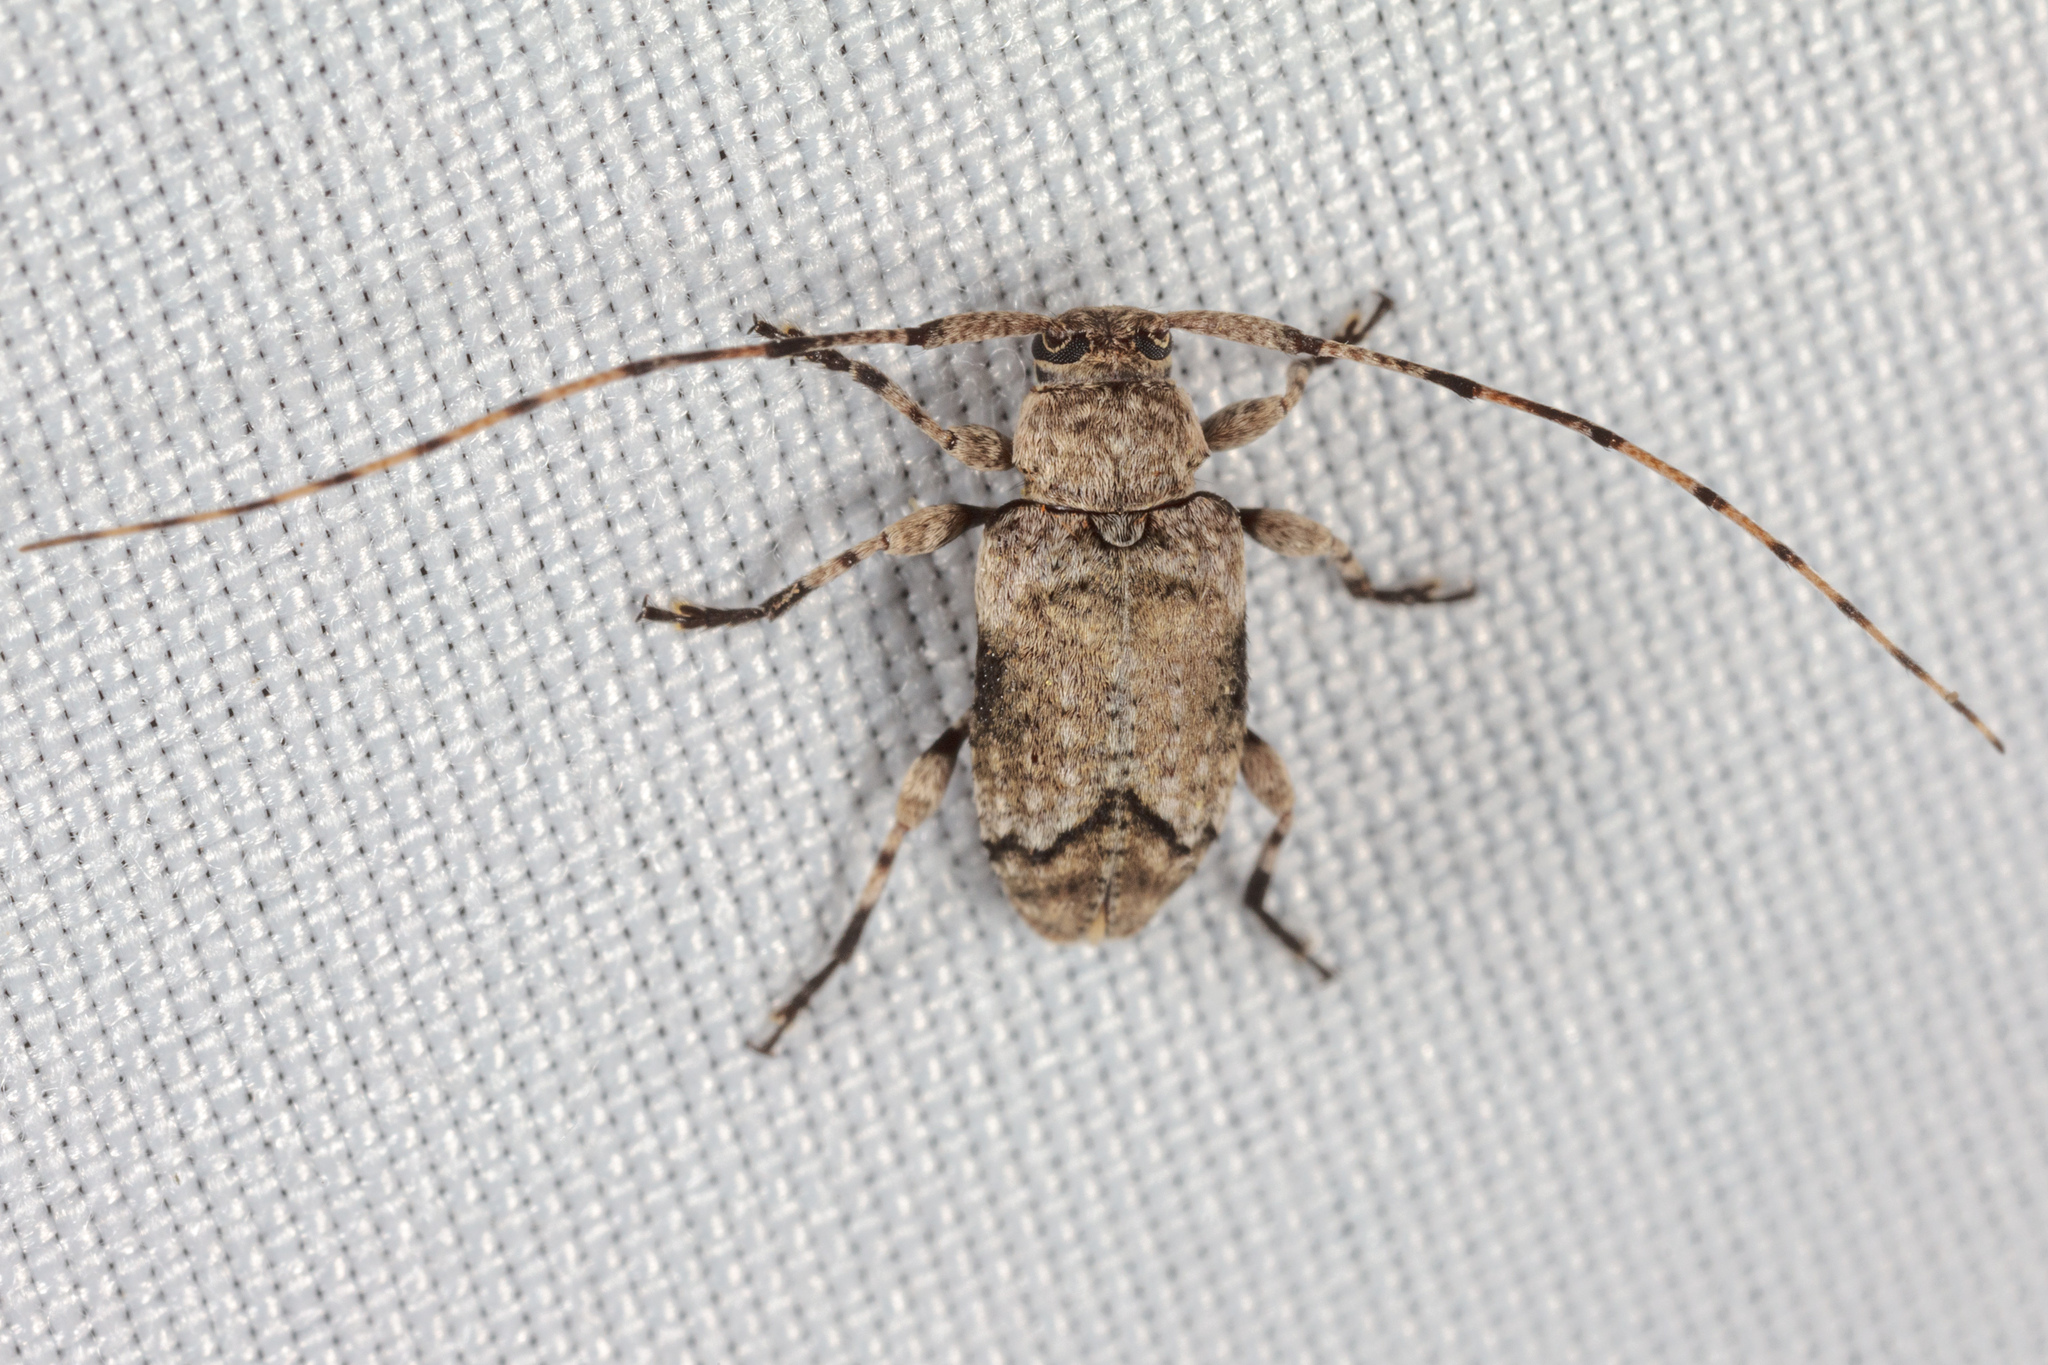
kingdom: Animalia
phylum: Arthropoda
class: Insecta
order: Coleoptera
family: Cerambycidae
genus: Sternidius
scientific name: Sternidius mimeticus
